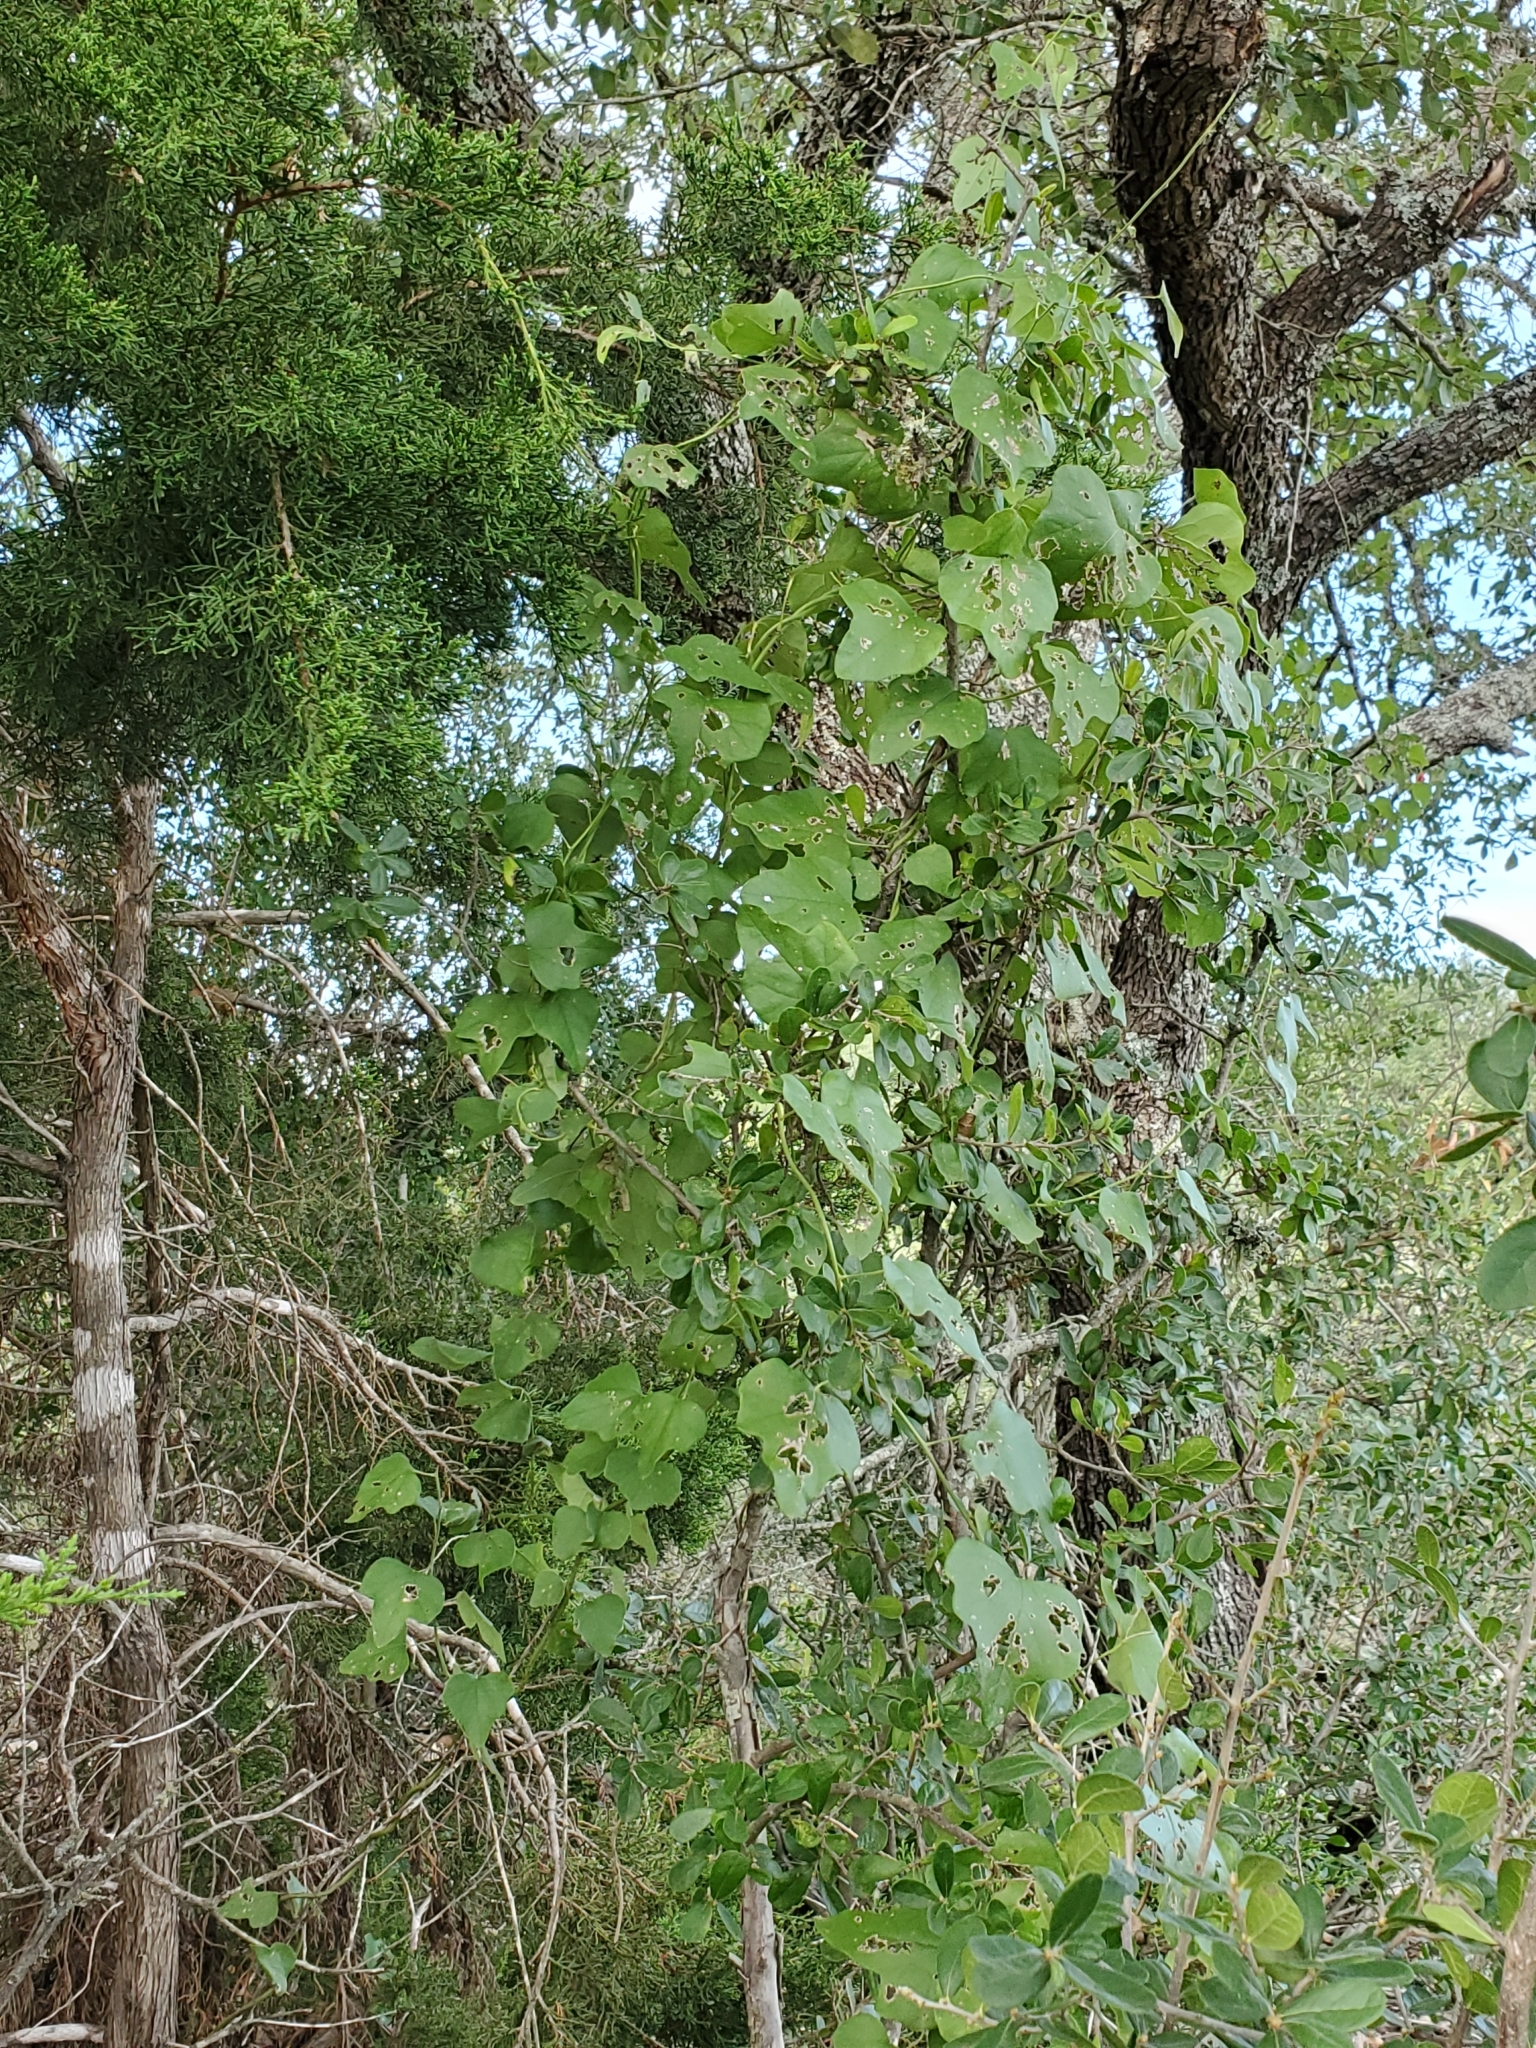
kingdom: Plantae
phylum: Tracheophyta
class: Magnoliopsida
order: Ranunculales
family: Menispermaceae
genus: Cocculus
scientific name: Cocculus carolinus
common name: Carolina moonseed
